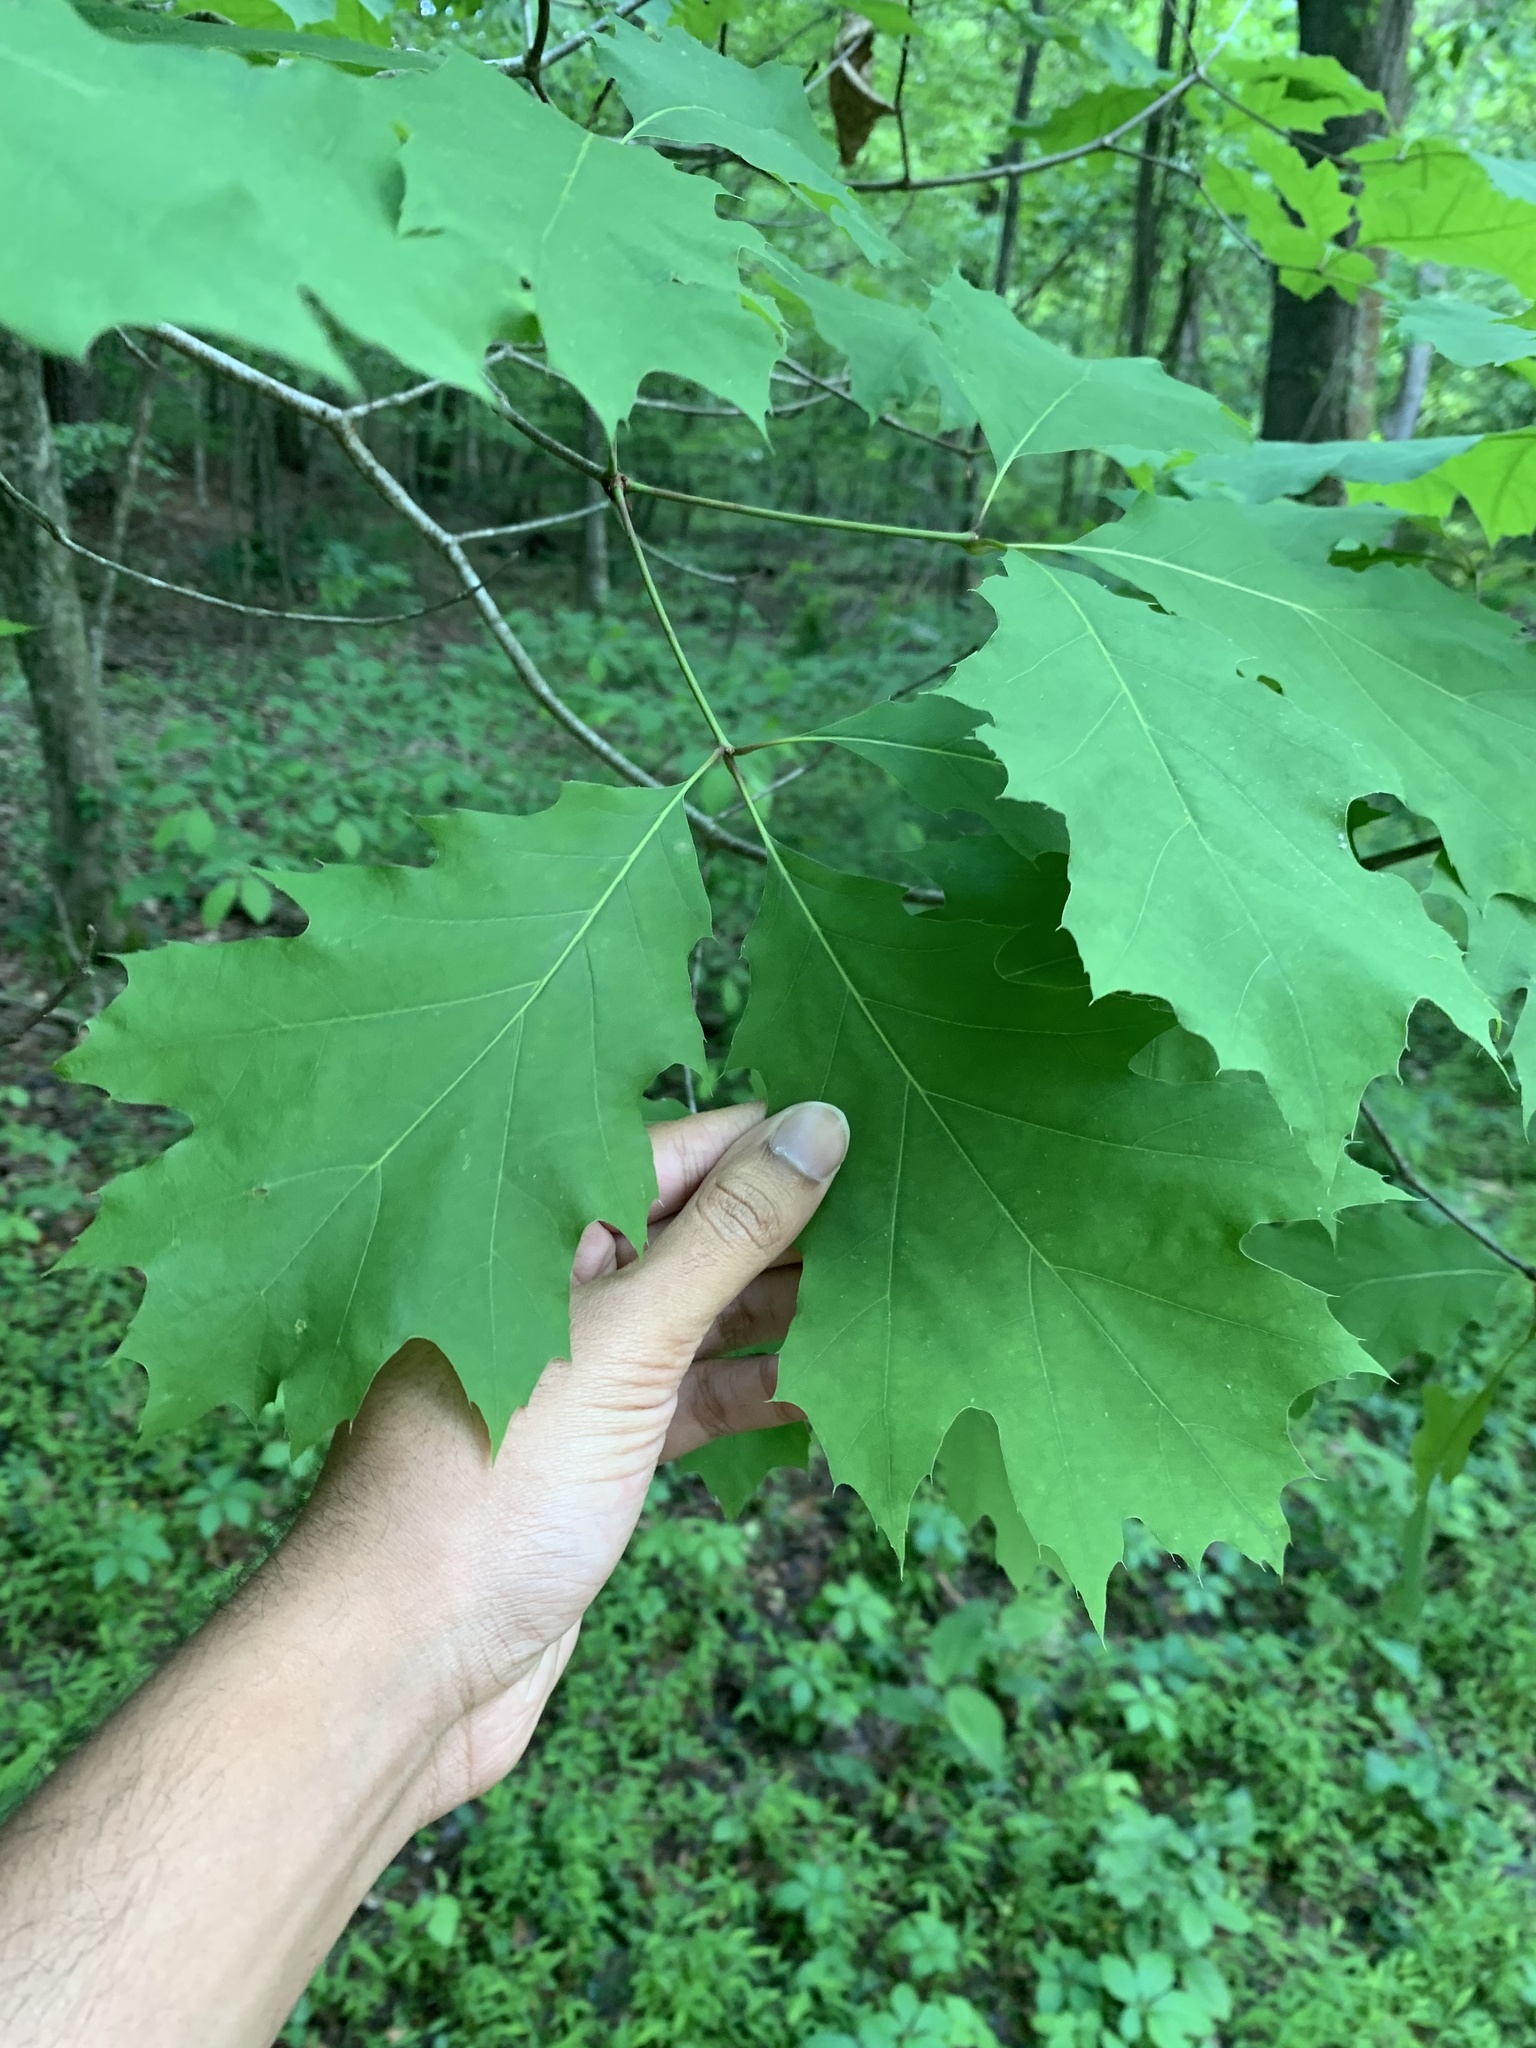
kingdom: Plantae
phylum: Tracheophyta
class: Magnoliopsida
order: Fagales
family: Fagaceae
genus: Quercus
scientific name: Quercus rubra
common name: Red oak
